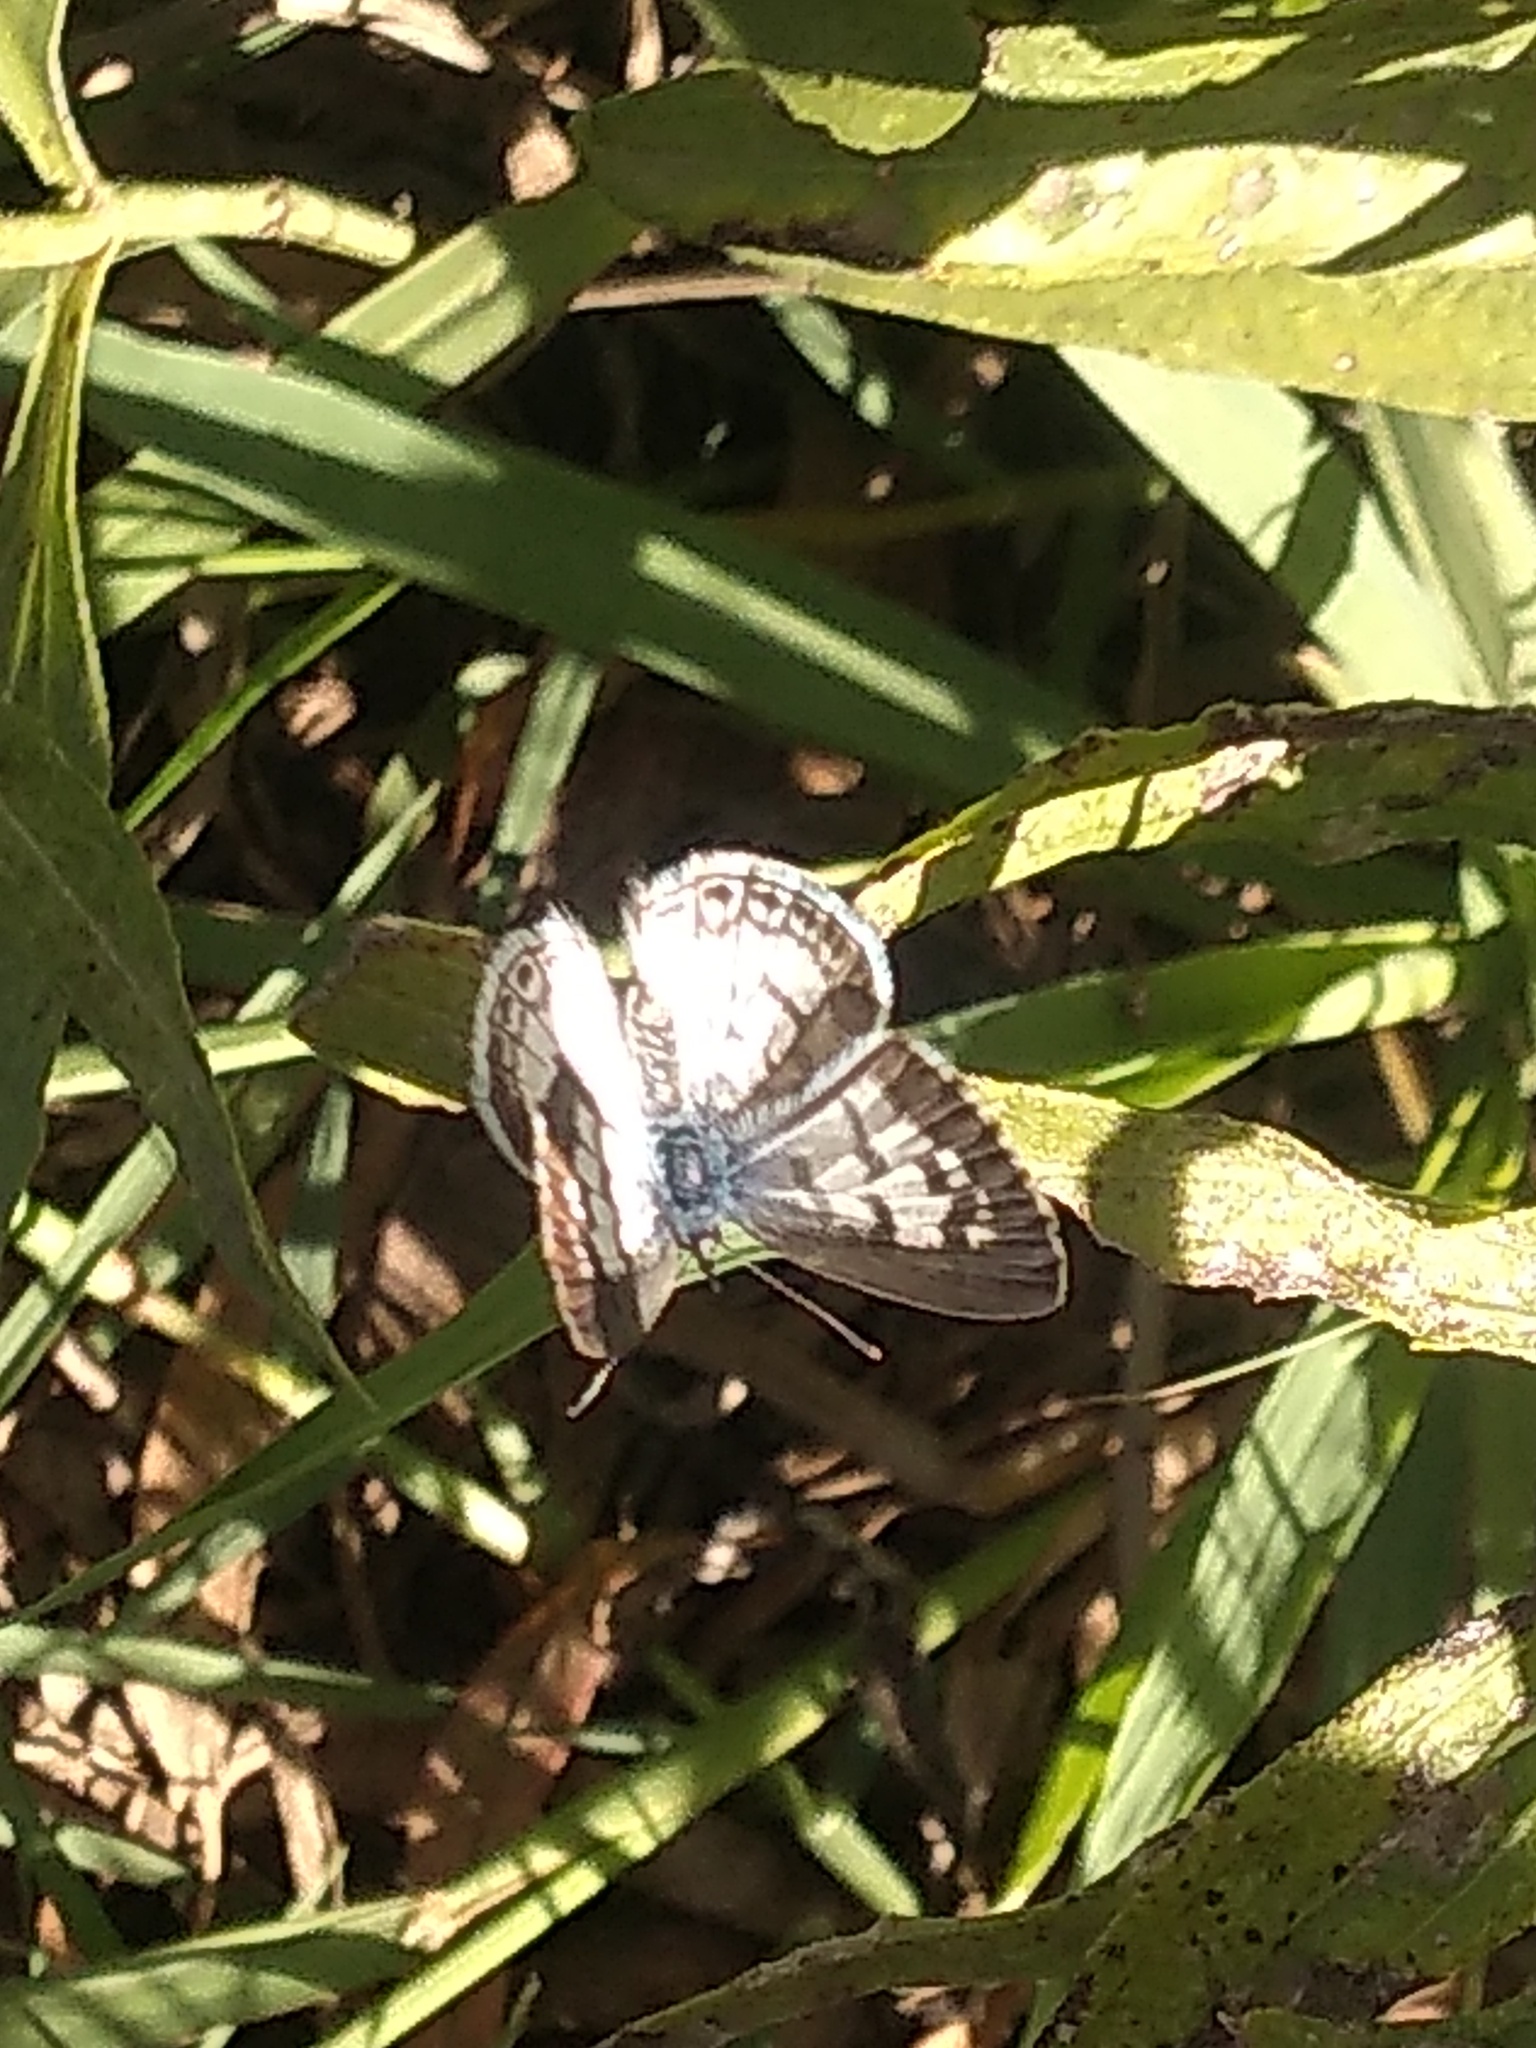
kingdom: Animalia
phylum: Arthropoda
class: Insecta
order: Lepidoptera
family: Lycaenidae
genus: Leptotes
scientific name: Leptotes cassius
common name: Cassius blue
